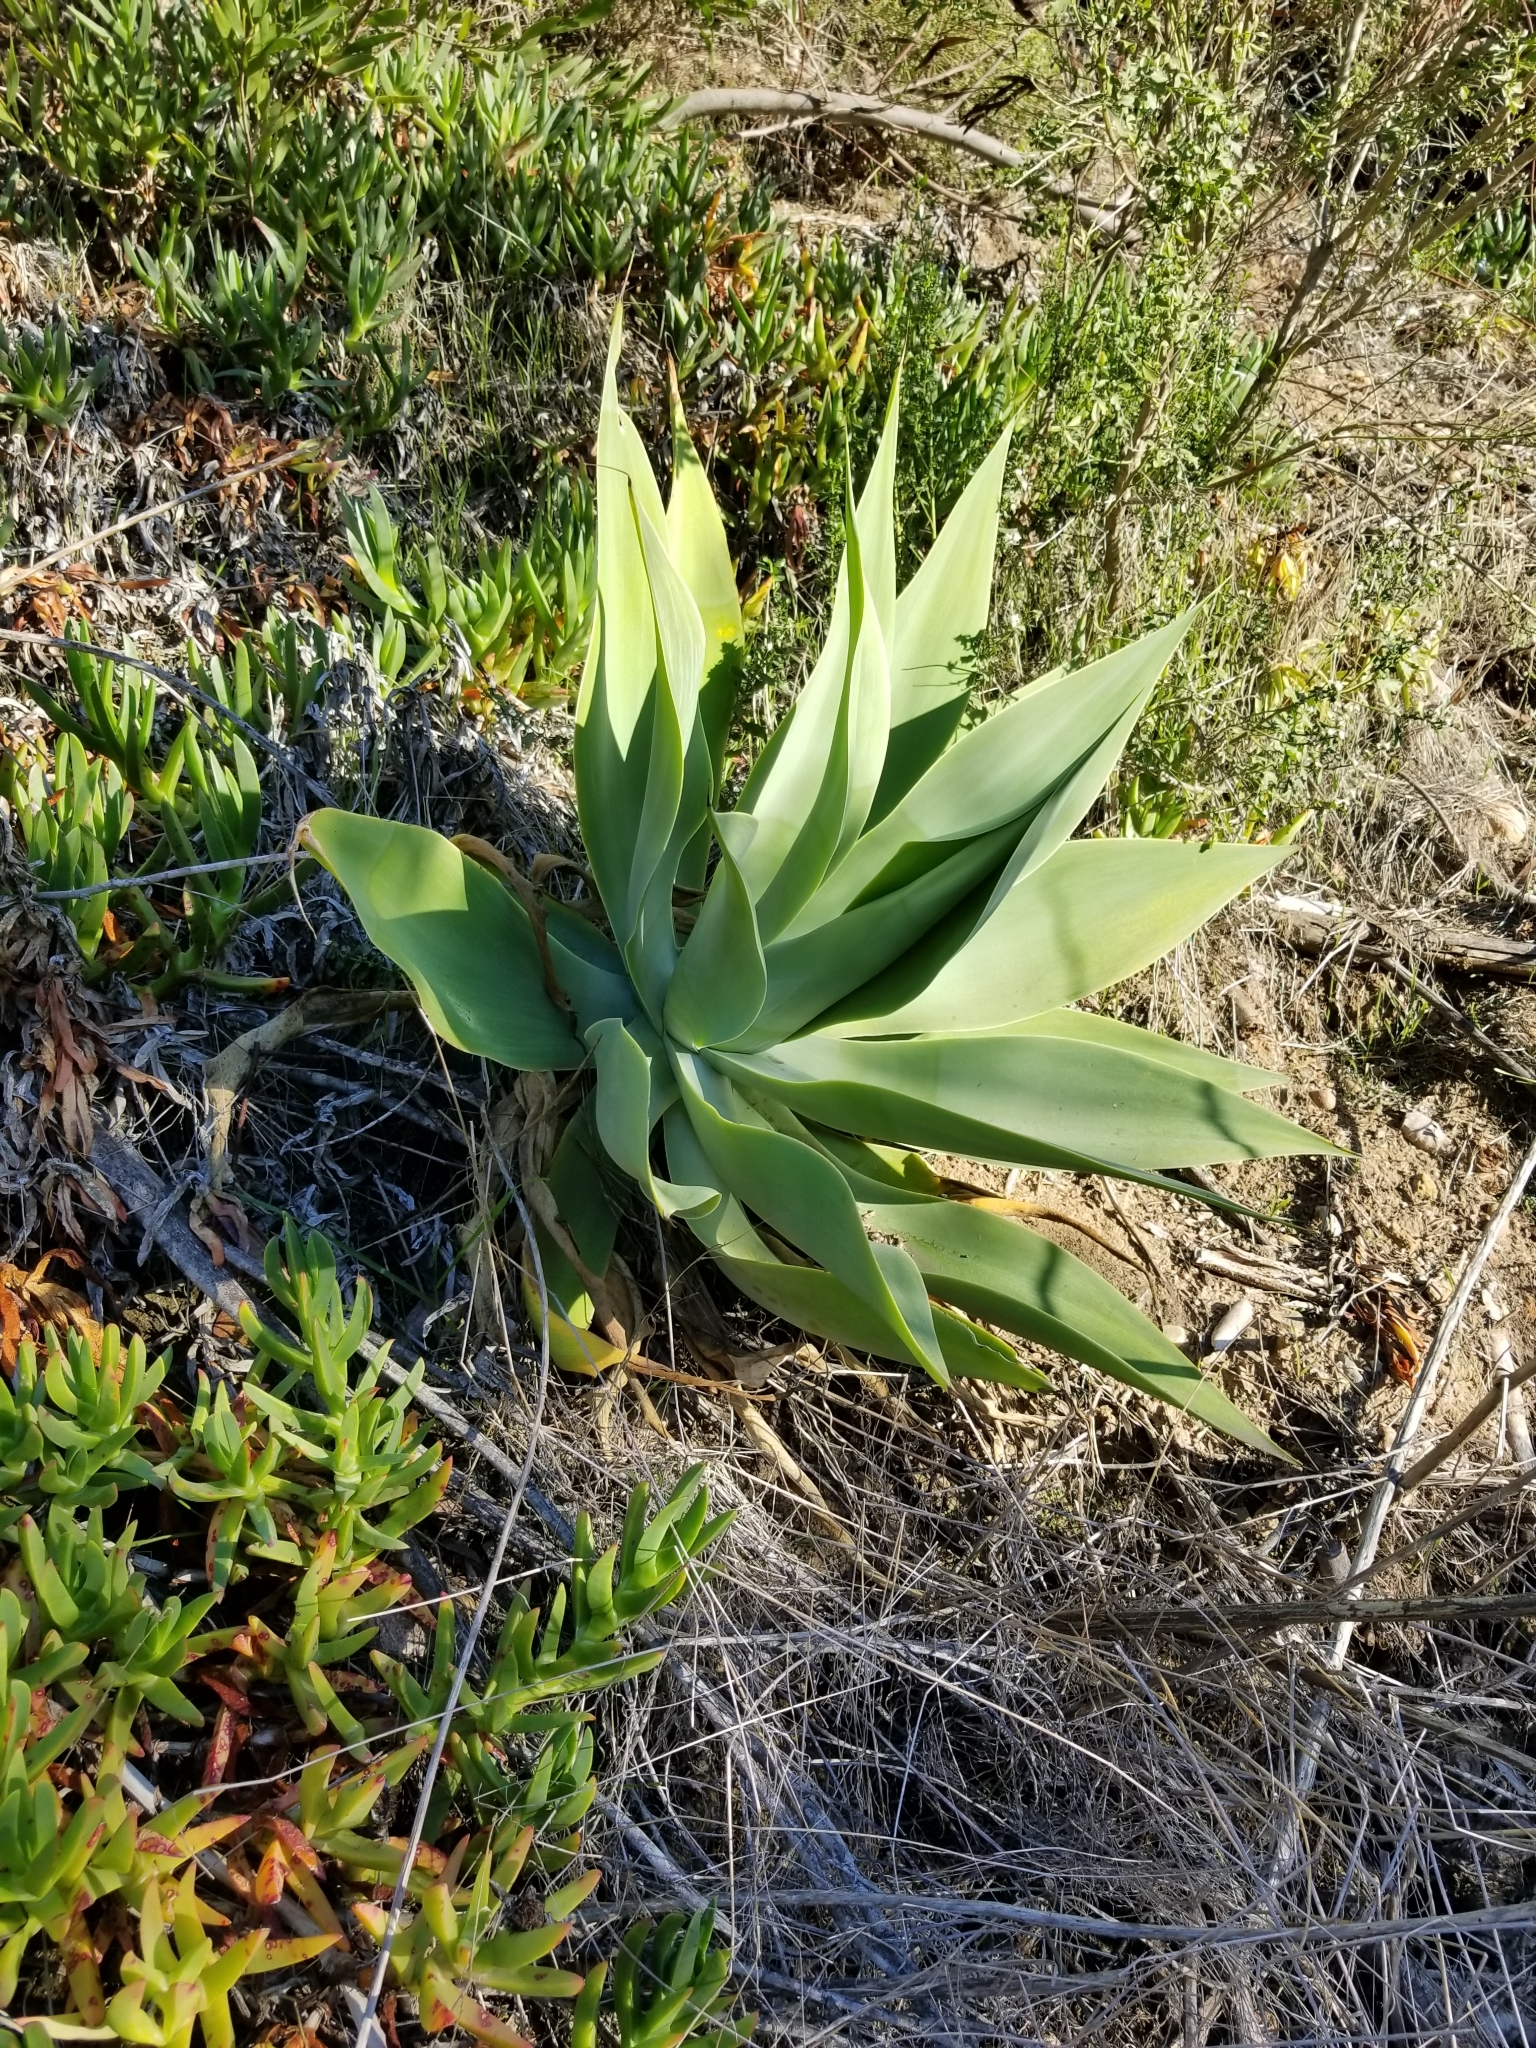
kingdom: Plantae
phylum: Tracheophyta
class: Liliopsida
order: Asparagales
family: Asparagaceae
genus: Agave
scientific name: Agave attenuata
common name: Fox tail agave
